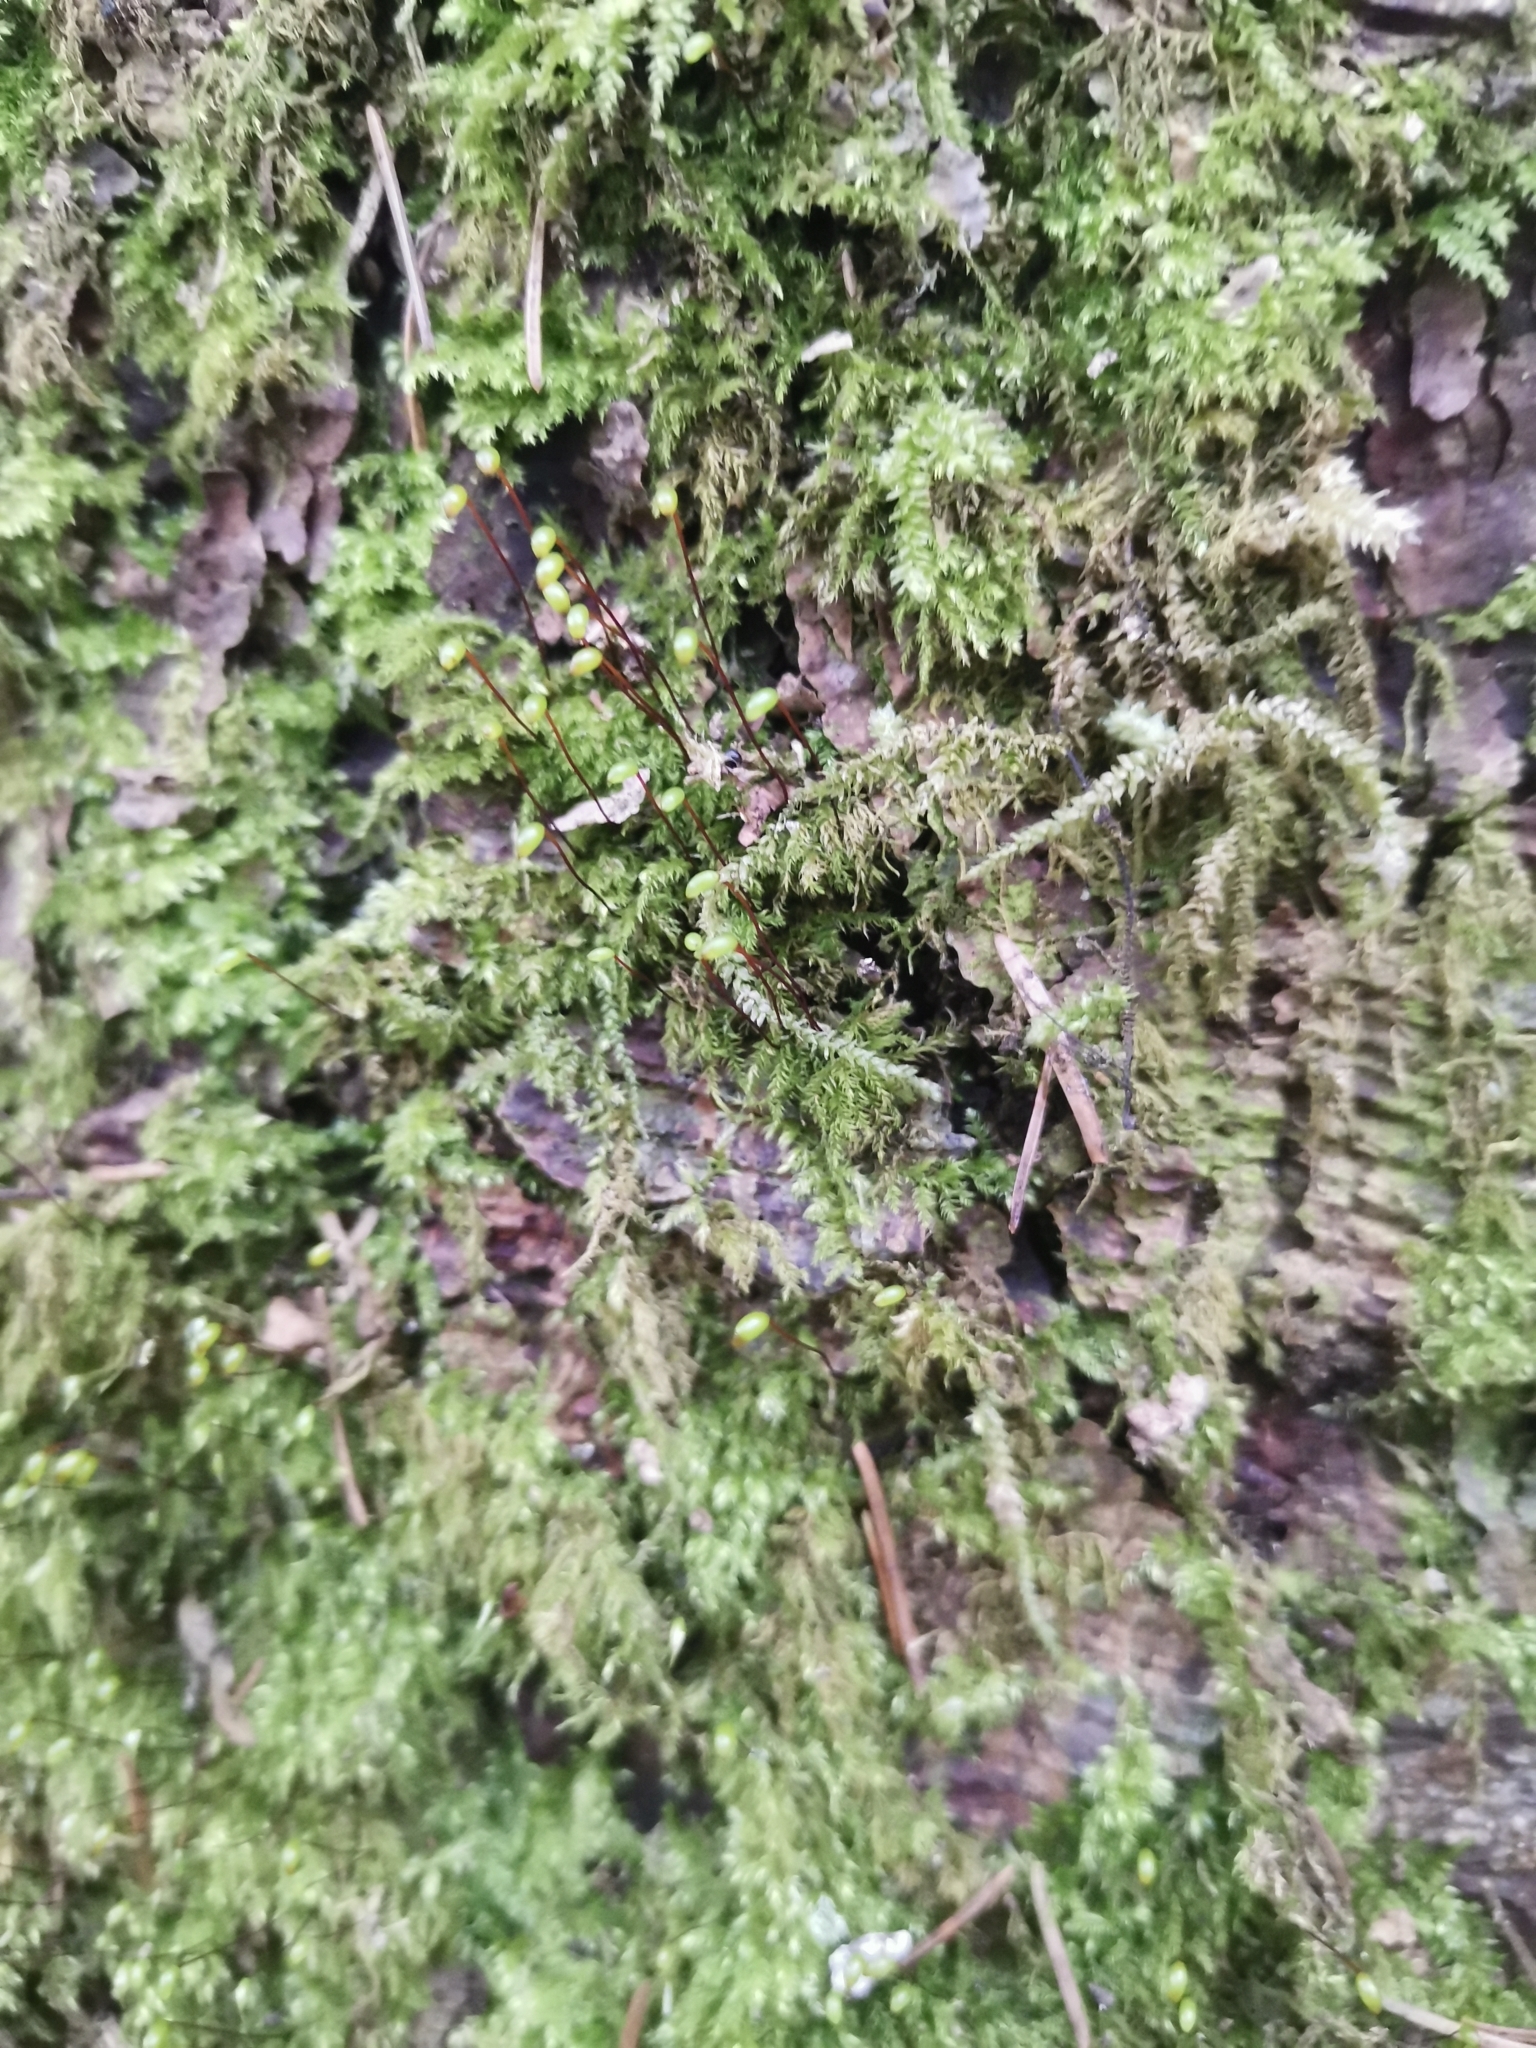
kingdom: Plantae
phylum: Bryophyta
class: Bryopsida
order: Hypnales
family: Brachytheciaceae
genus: Brachytheciastrum
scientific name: Brachytheciastrum velutinum
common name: Velvet feather-moss
